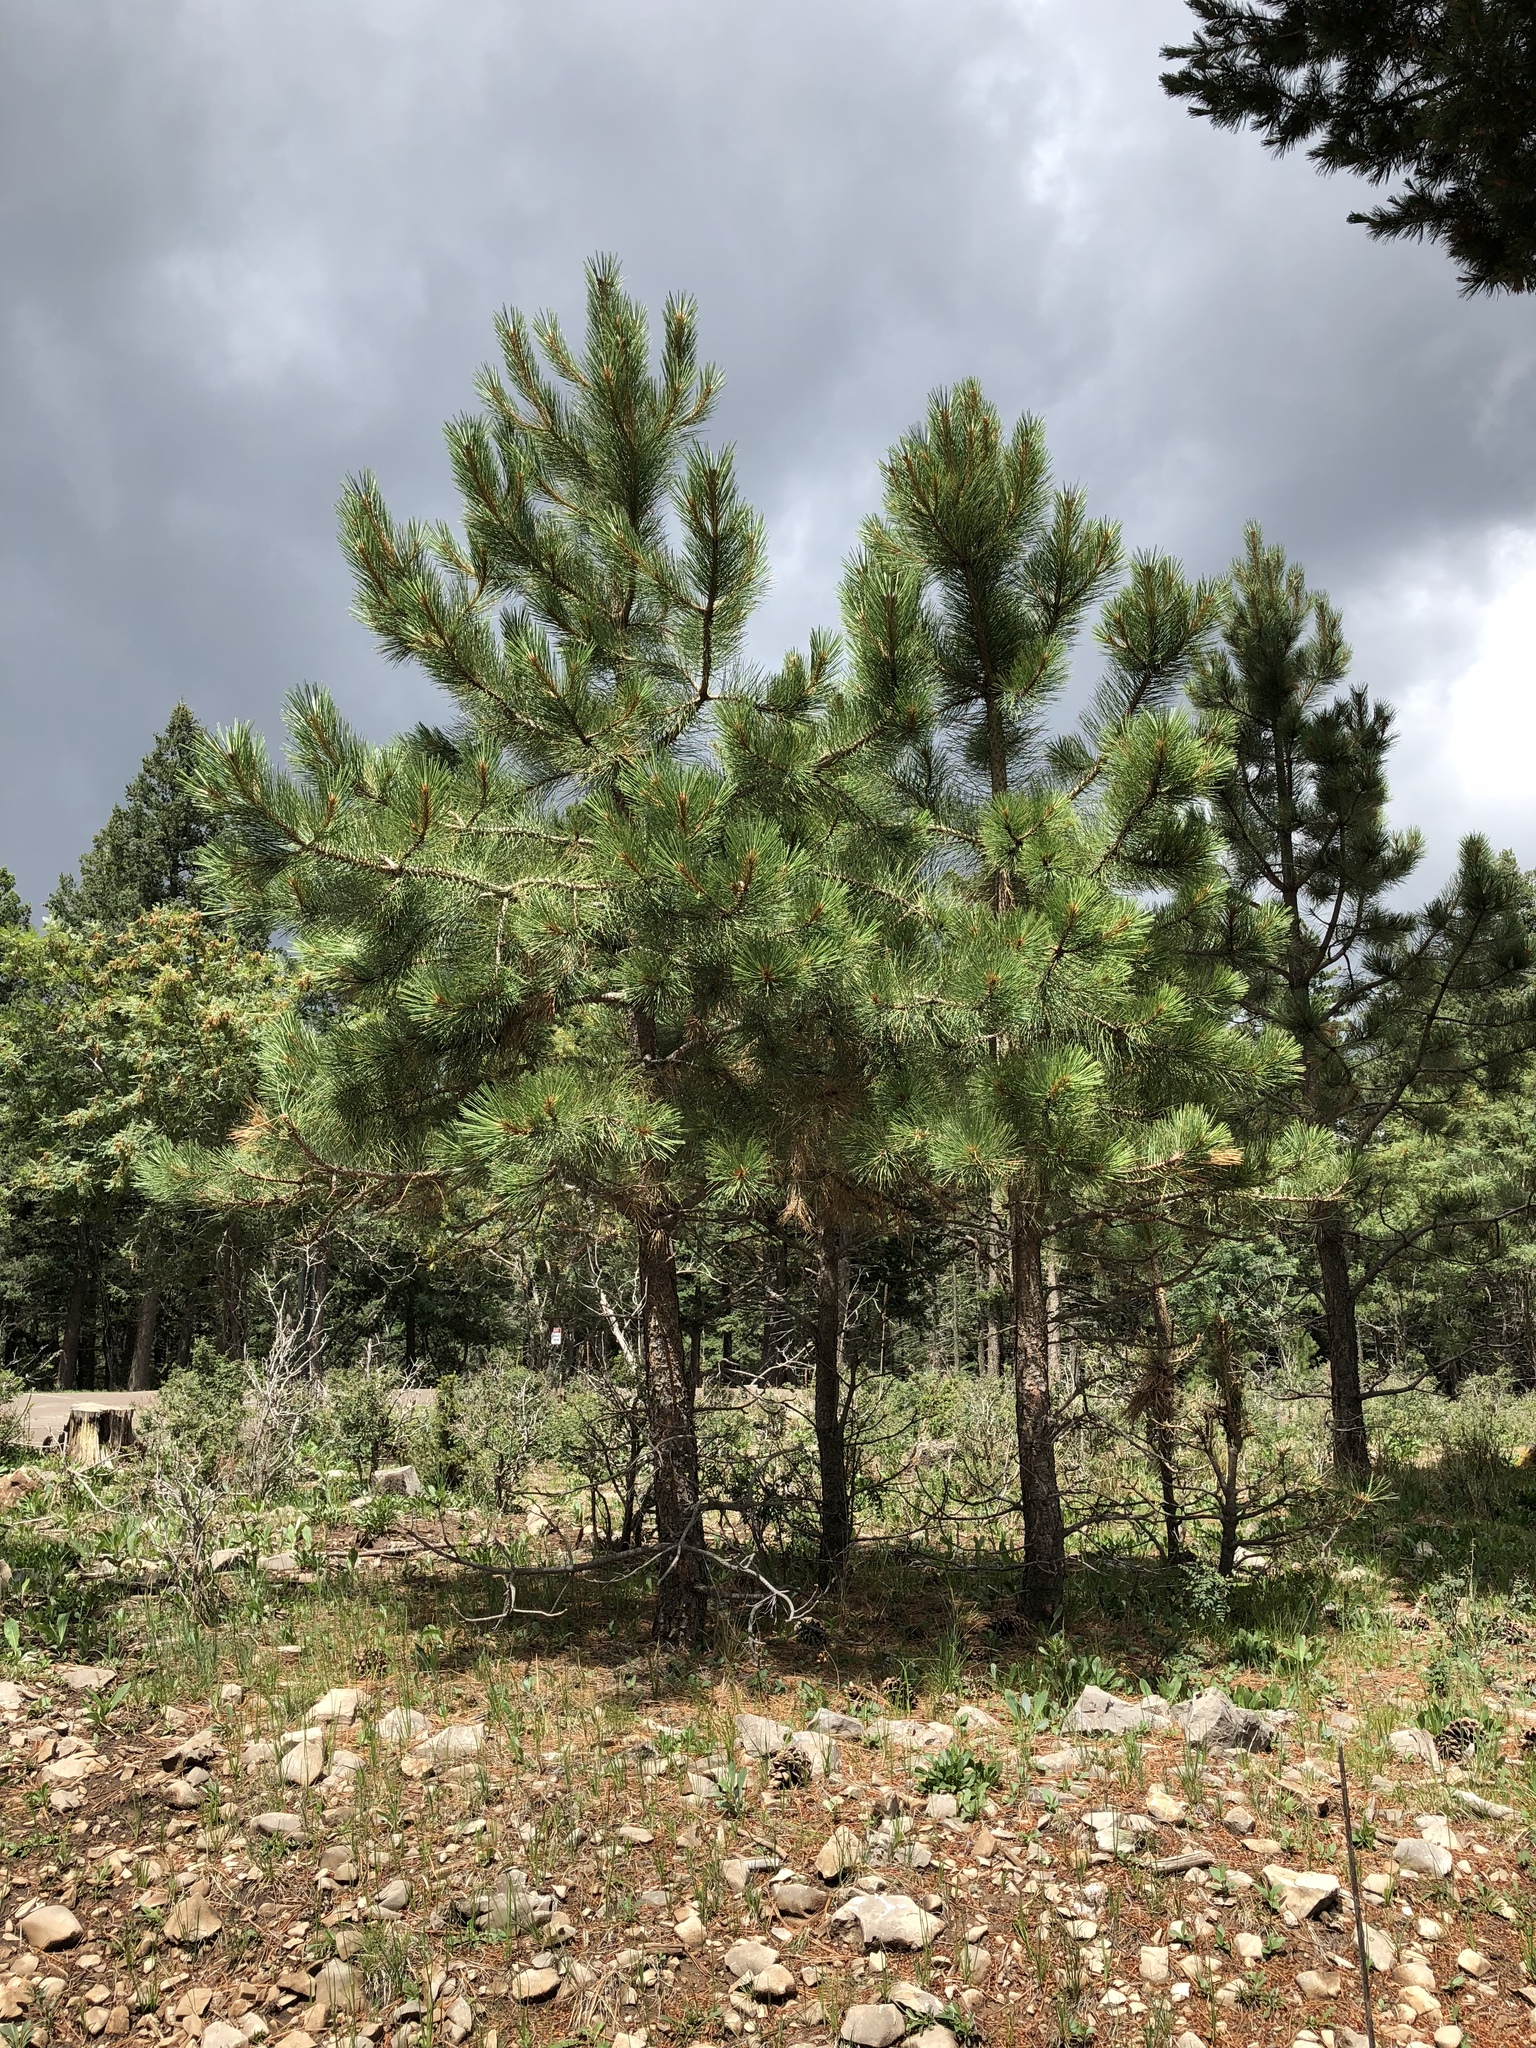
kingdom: Plantae
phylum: Tracheophyta
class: Pinopsida
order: Pinales
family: Pinaceae
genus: Pinus
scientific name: Pinus strobiformis
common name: Southwestern white pine
